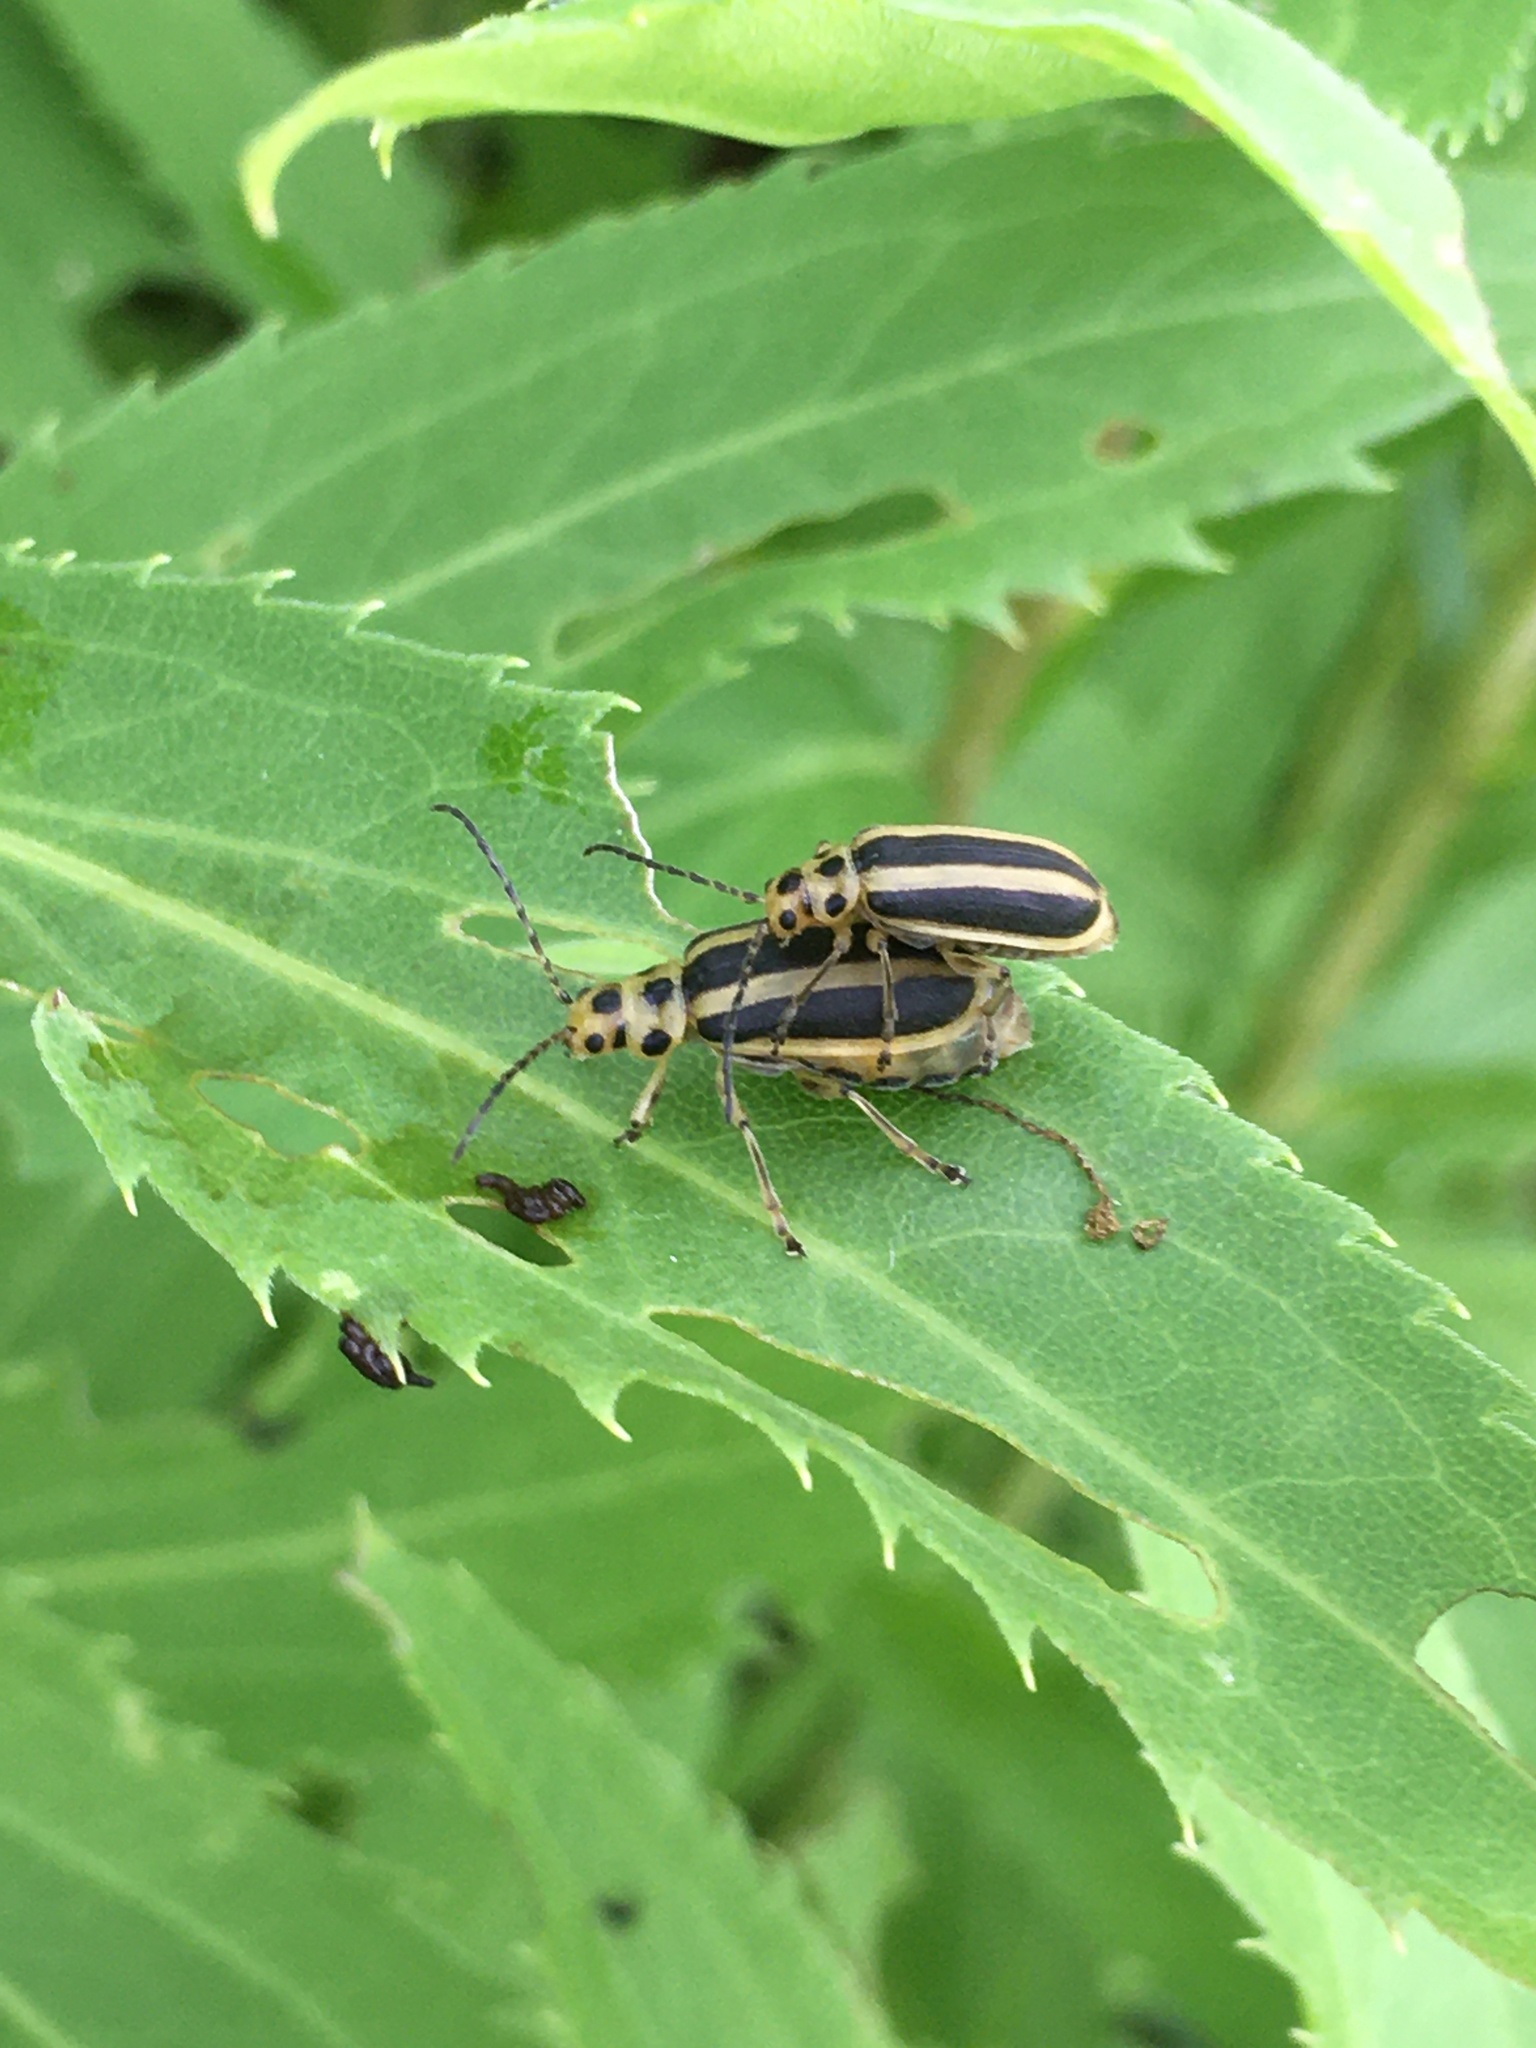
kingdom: Animalia
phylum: Arthropoda
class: Insecta
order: Coleoptera
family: Chrysomelidae
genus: Trirhabda
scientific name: Trirhabda virgata
